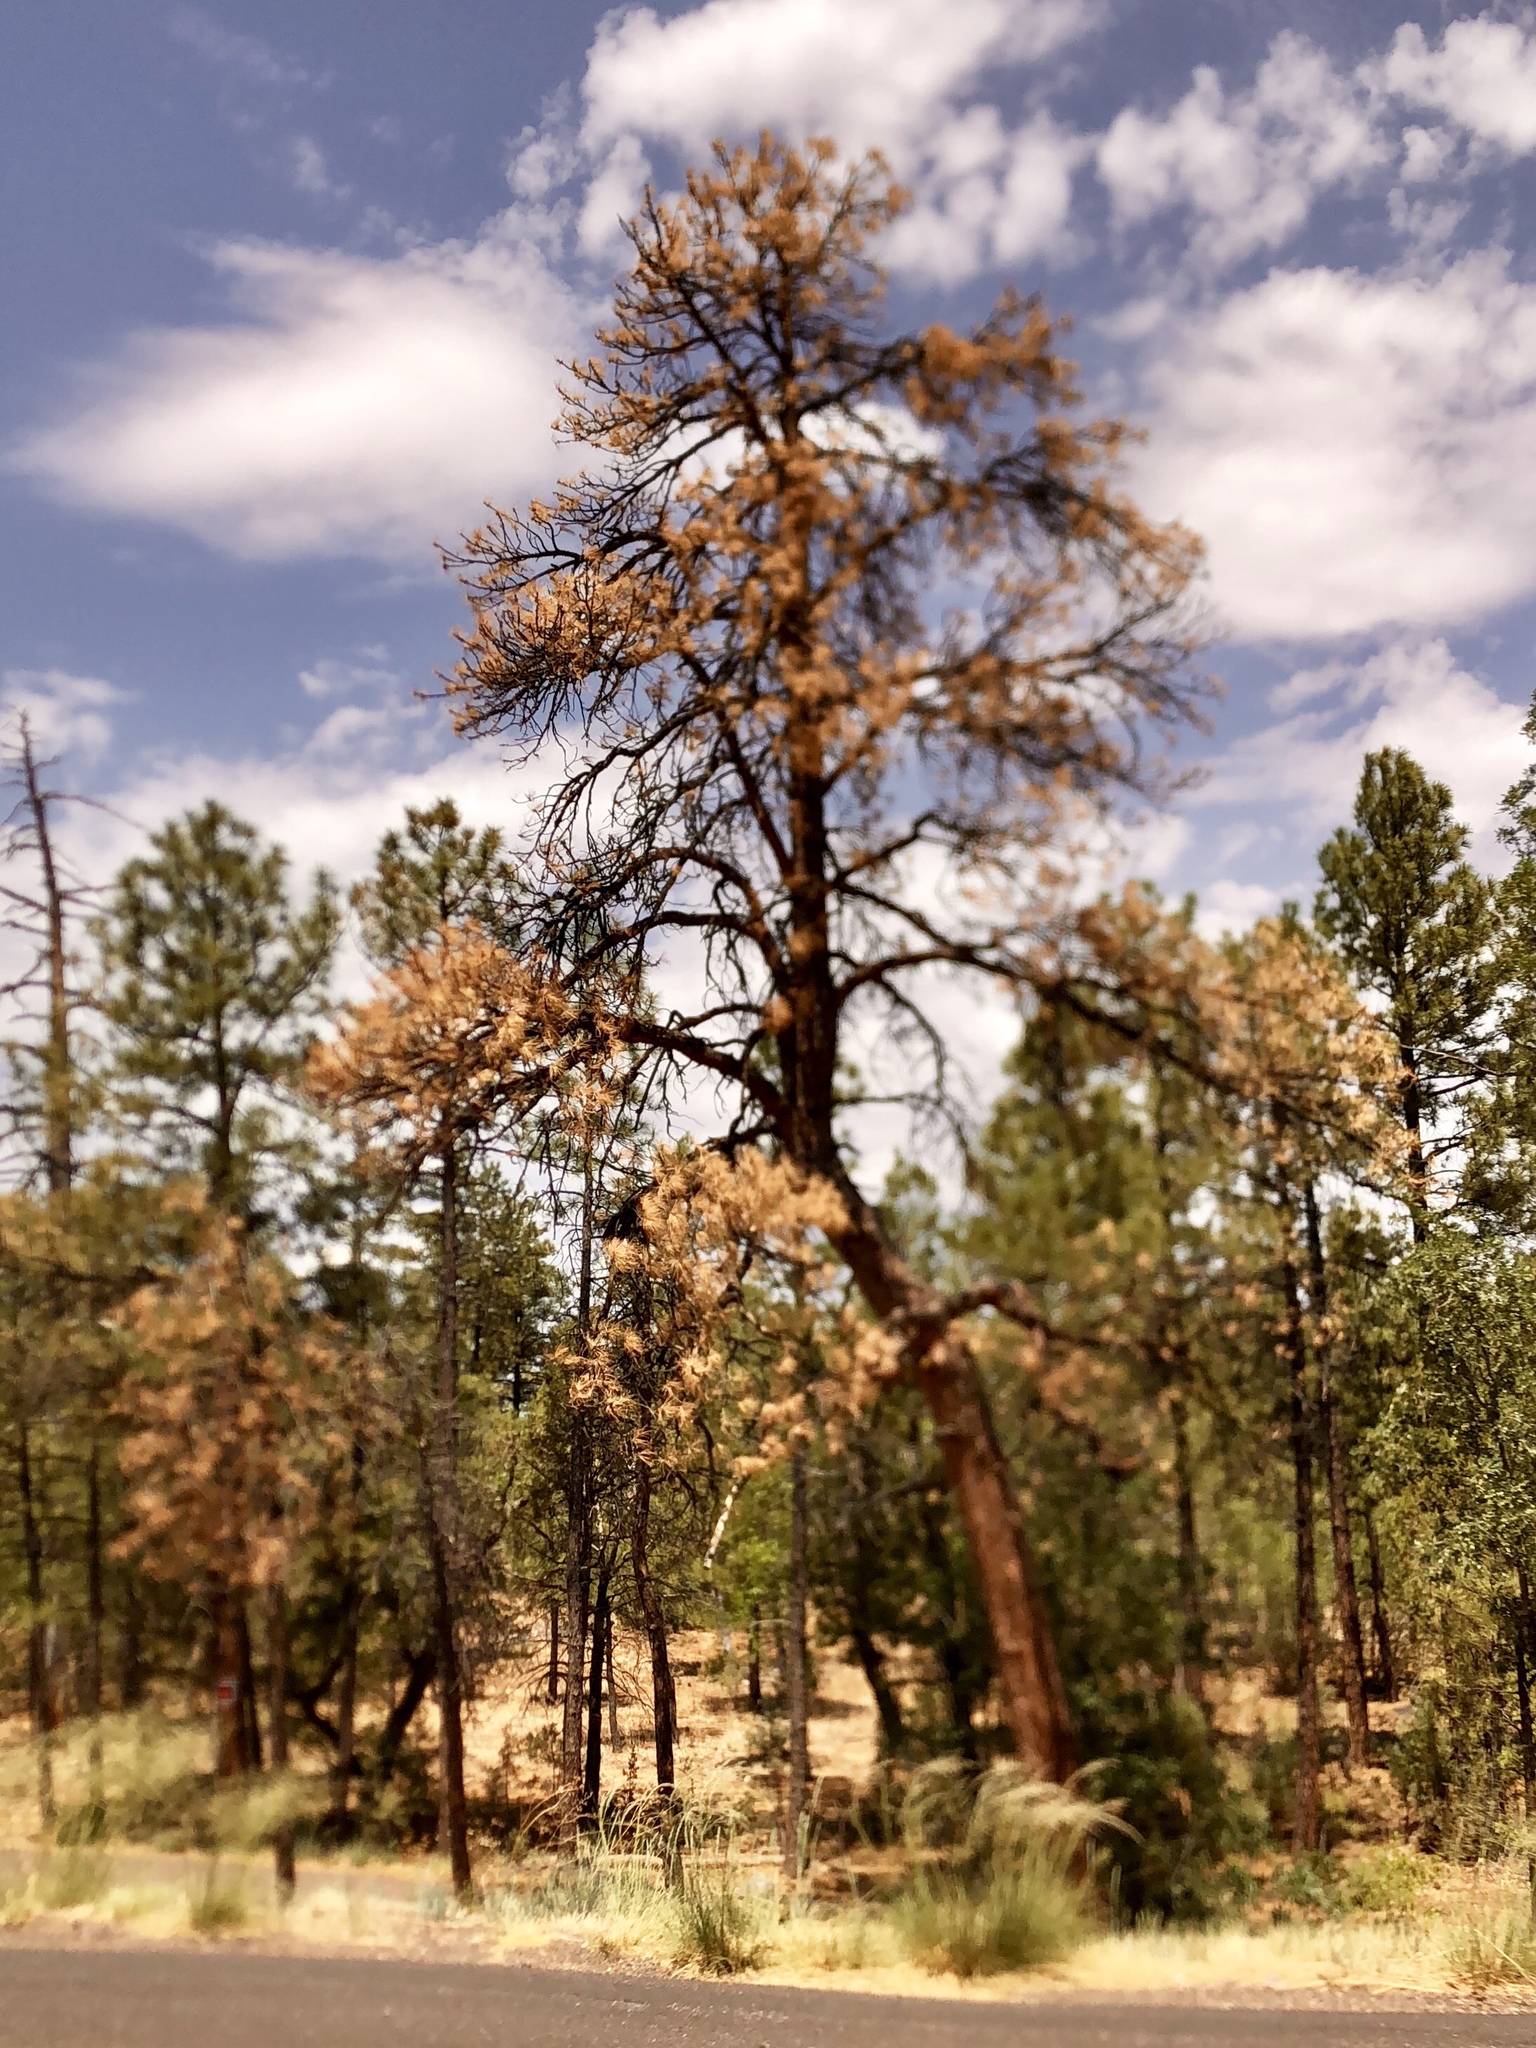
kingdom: Plantae
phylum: Tracheophyta
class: Pinopsida
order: Pinales
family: Pinaceae
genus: Pinus
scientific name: Pinus ponderosa
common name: Western yellow-pine
